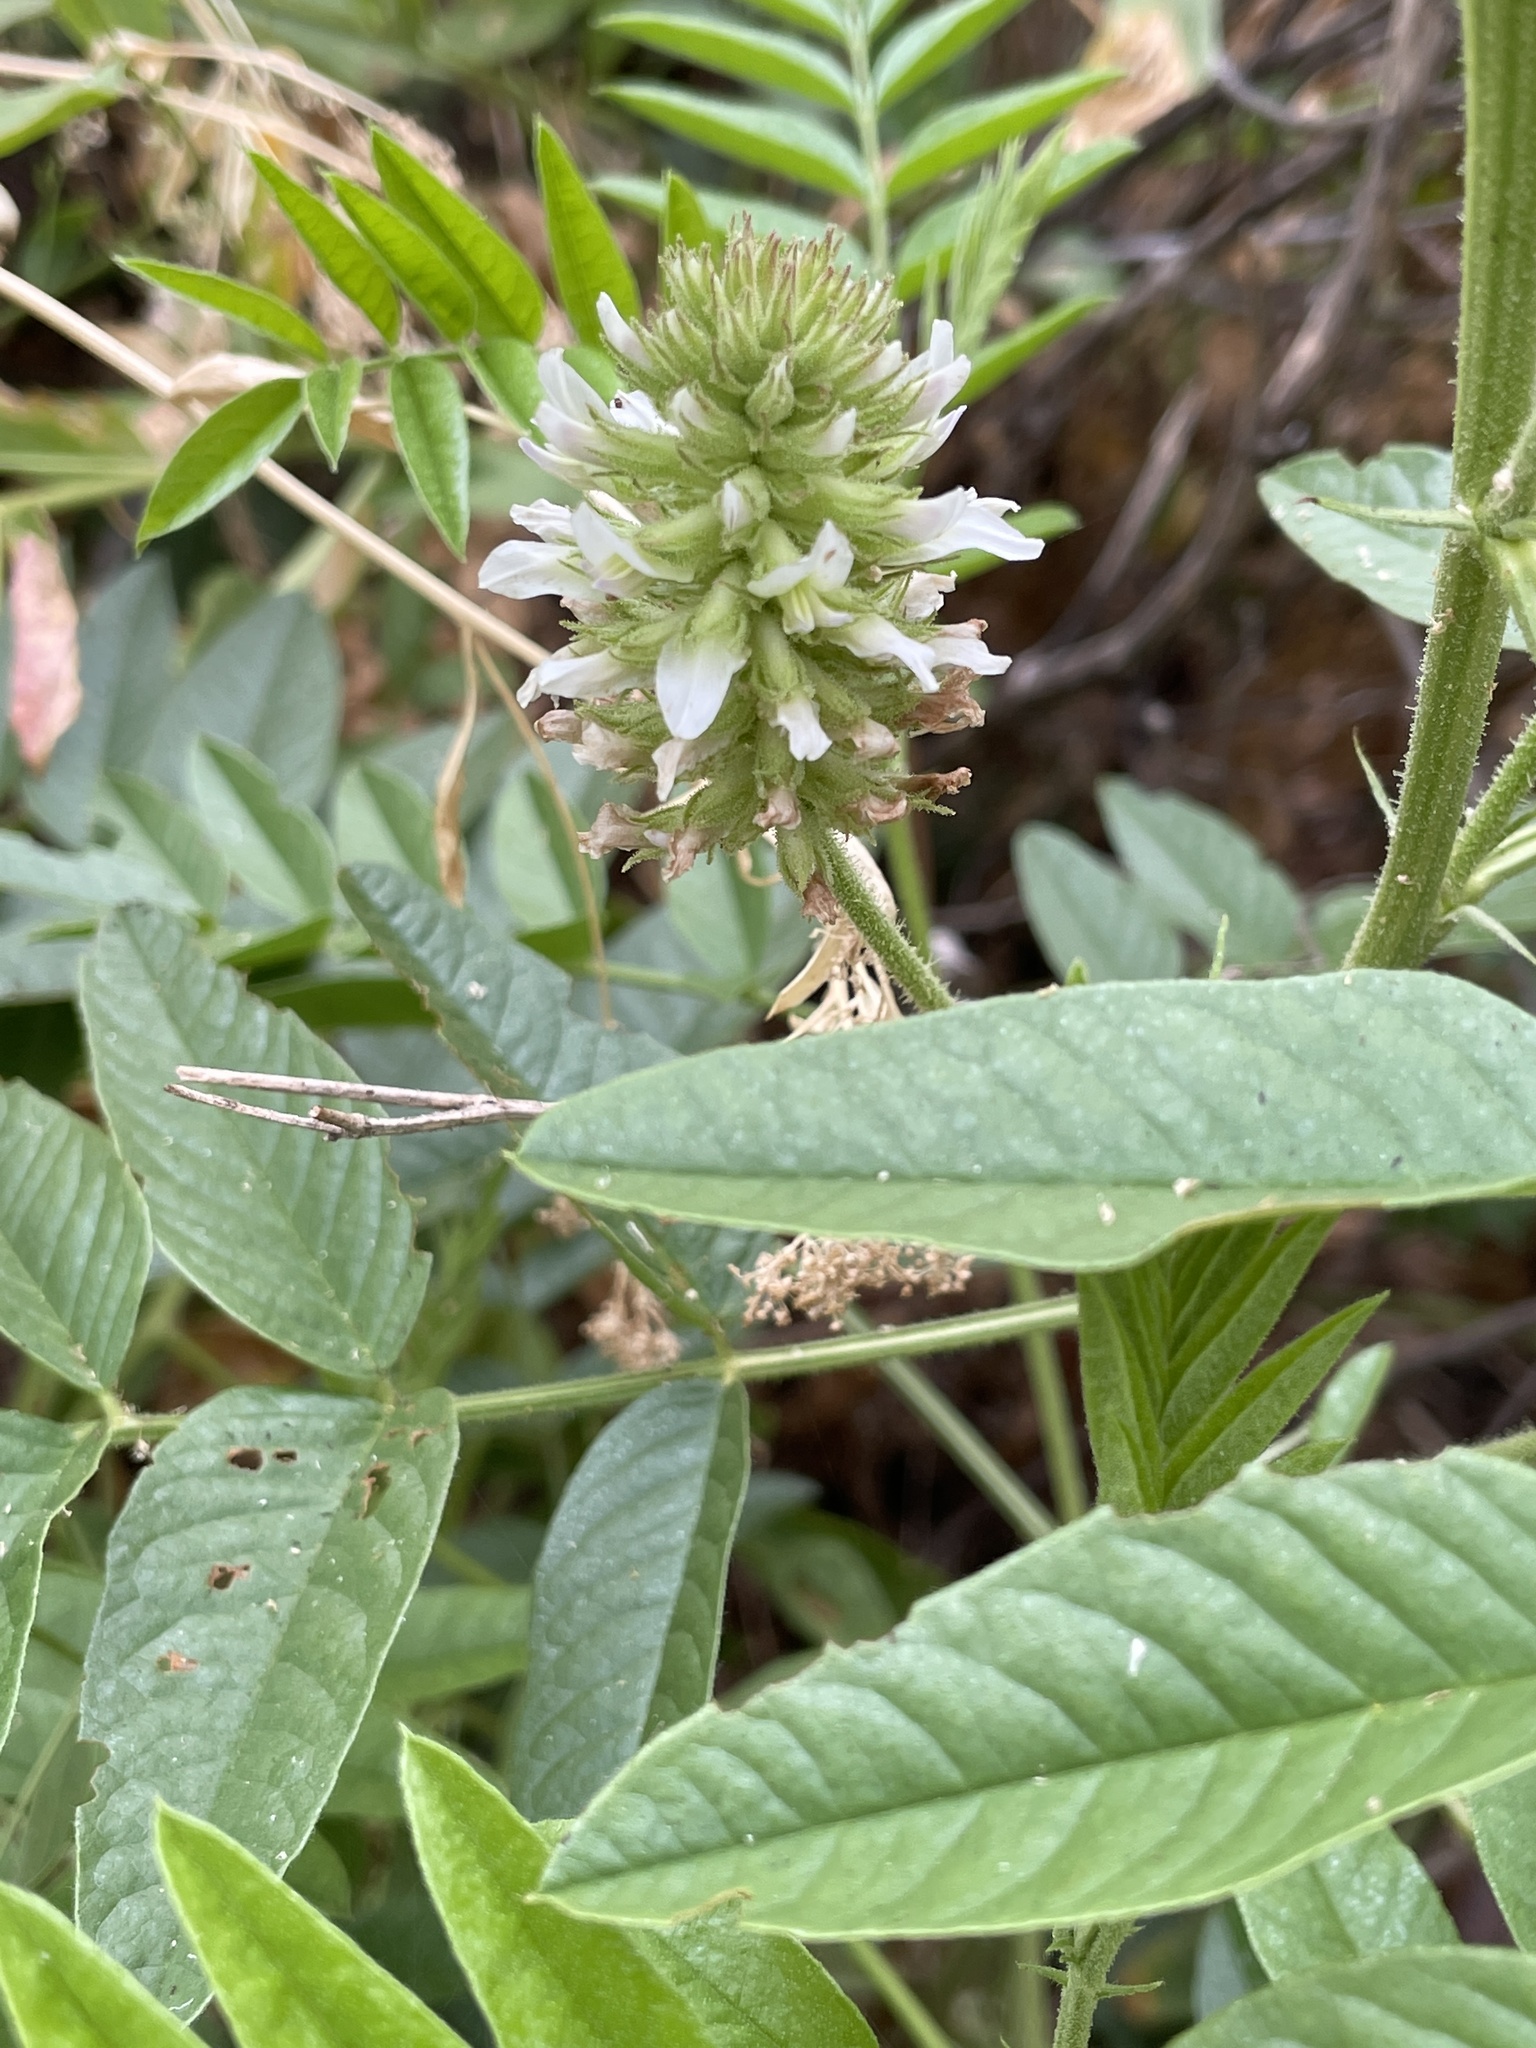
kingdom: Plantae
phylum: Tracheophyta
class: Magnoliopsida
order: Fabales
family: Fabaceae
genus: Glycyrrhiza
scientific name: Glycyrrhiza lepidota
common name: American liquorice
